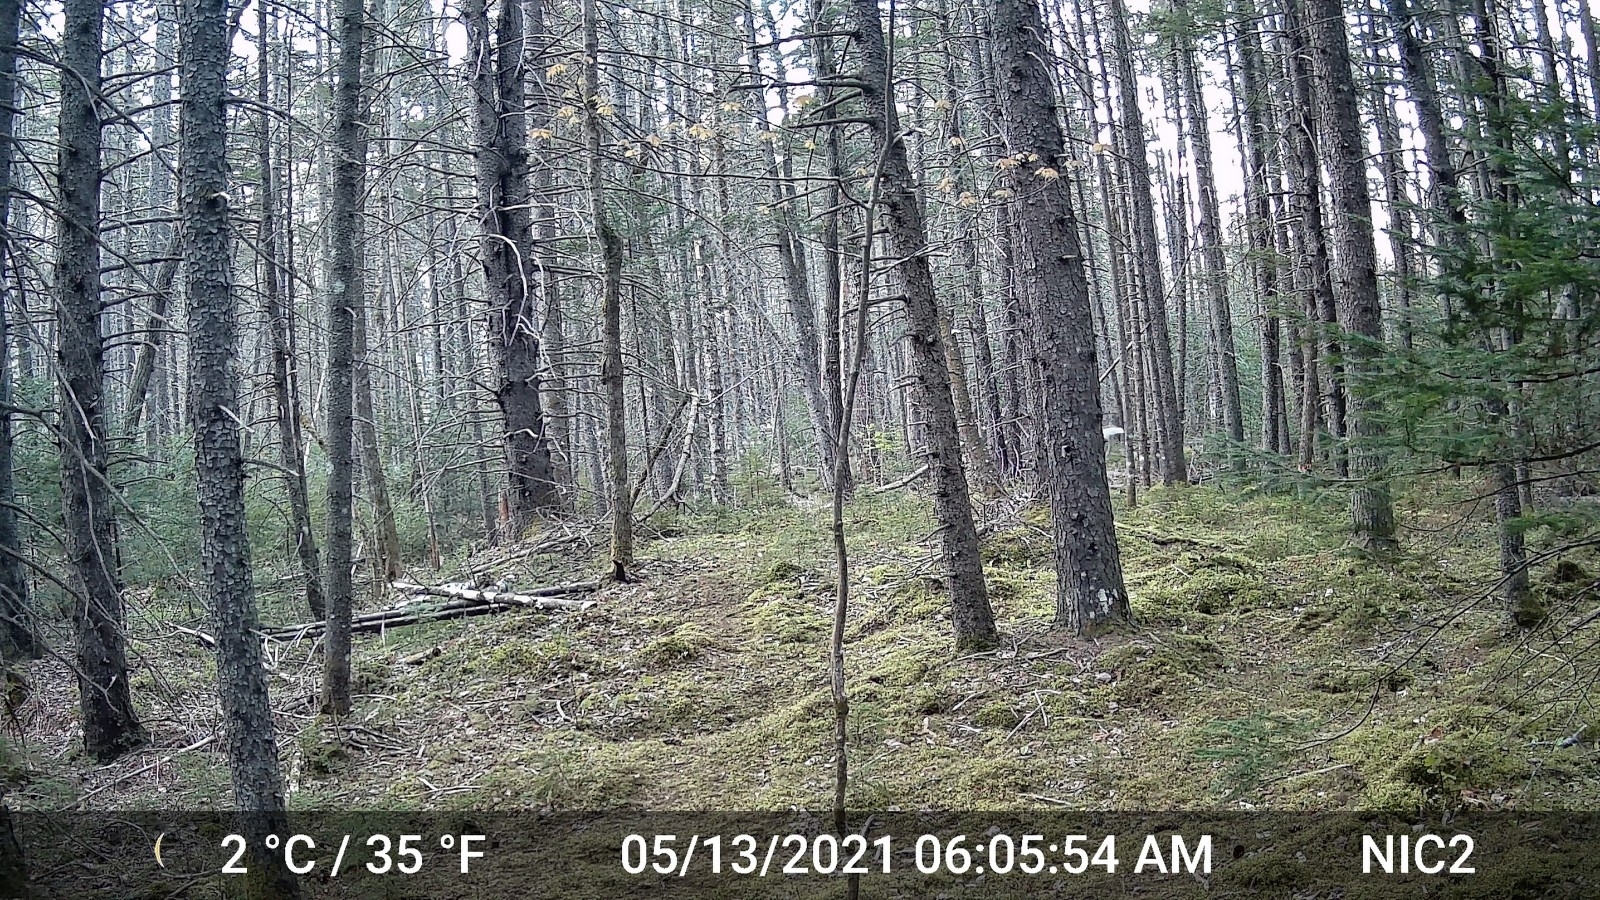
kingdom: Animalia
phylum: Chordata
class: Mammalia
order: Artiodactyla
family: Cervidae
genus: Odocoileus
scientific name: Odocoileus virginianus
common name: White-tailed deer
